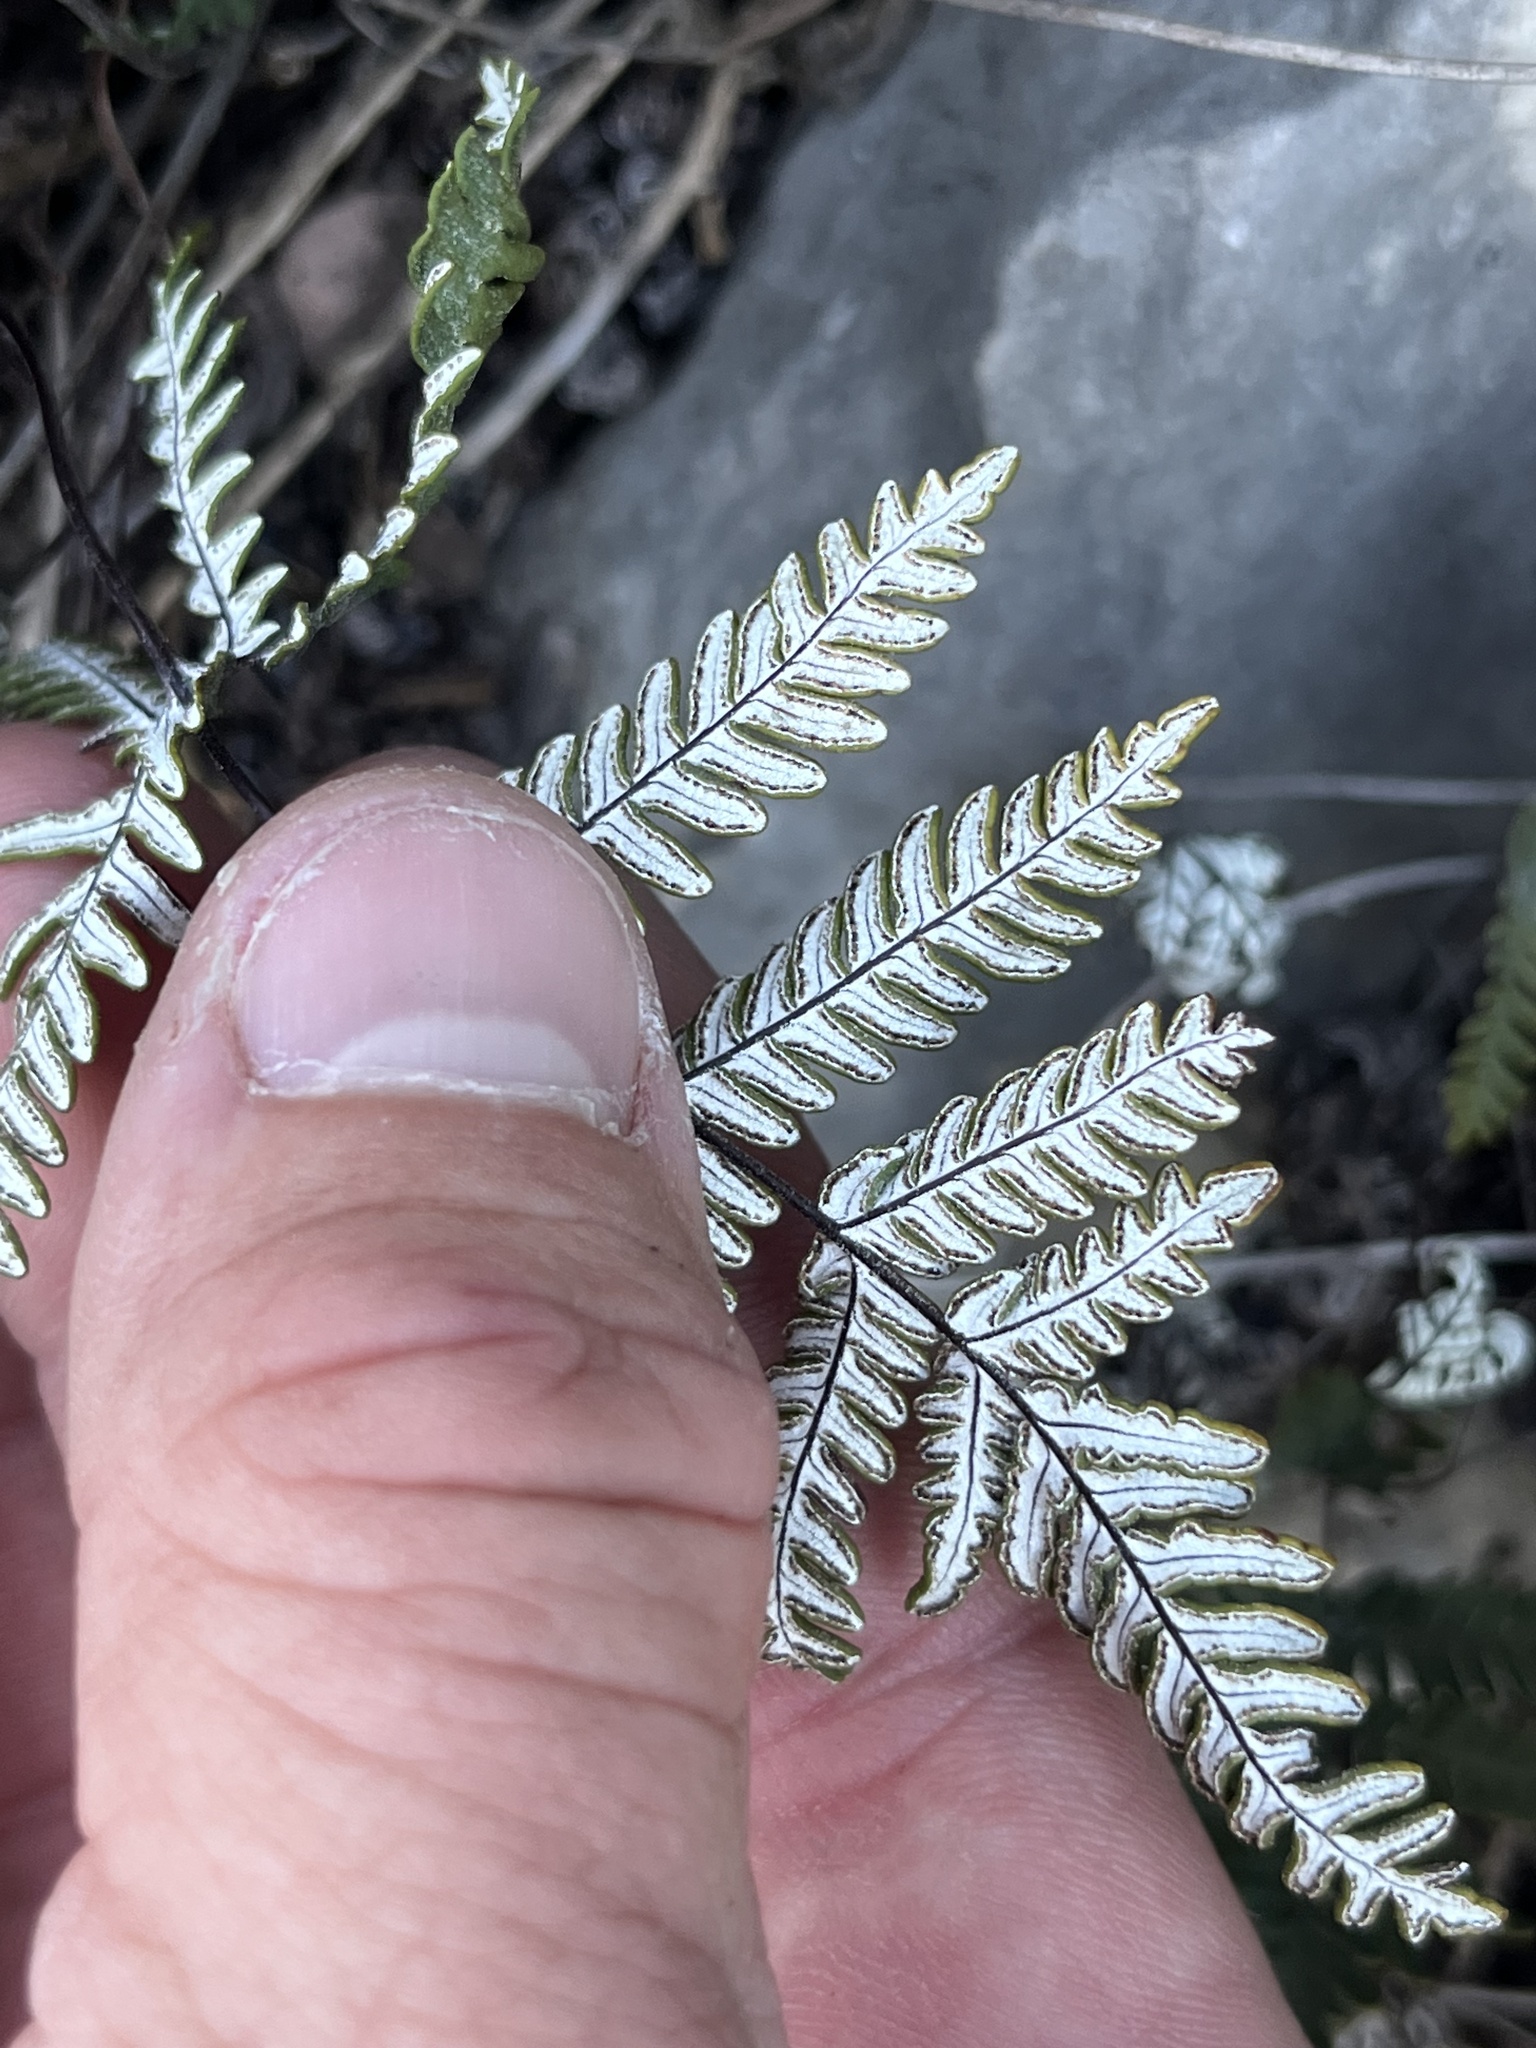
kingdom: Plantae
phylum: Tracheophyta
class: Polypodiopsida
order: Polypodiales
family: Pteridaceae
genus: Notholaena
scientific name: Notholaena candida
